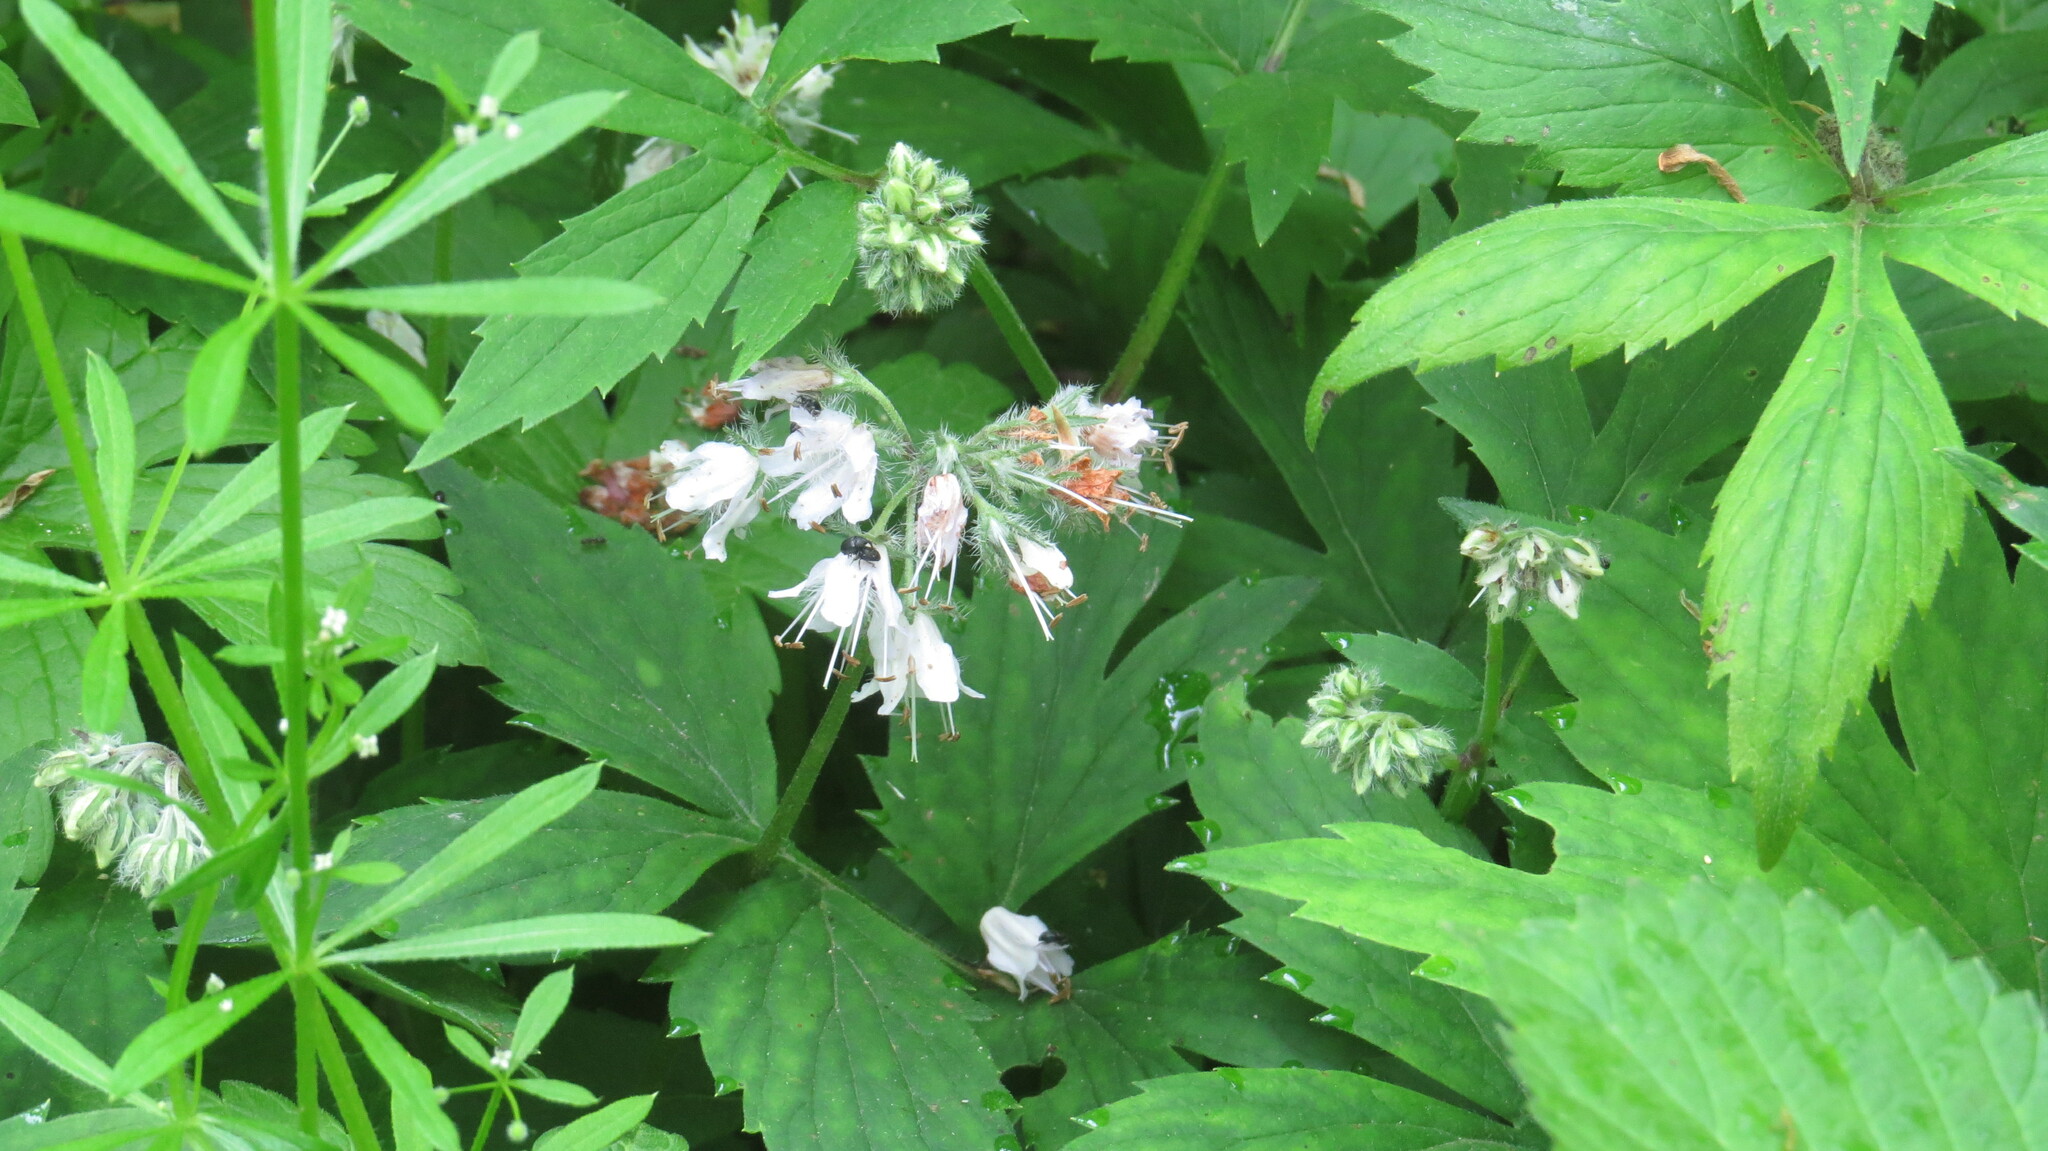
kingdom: Plantae
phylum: Tracheophyta
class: Magnoliopsida
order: Boraginales
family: Hydrophyllaceae
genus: Hydrophyllum
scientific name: Hydrophyllum virginianum
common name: Virginia waterleaf
